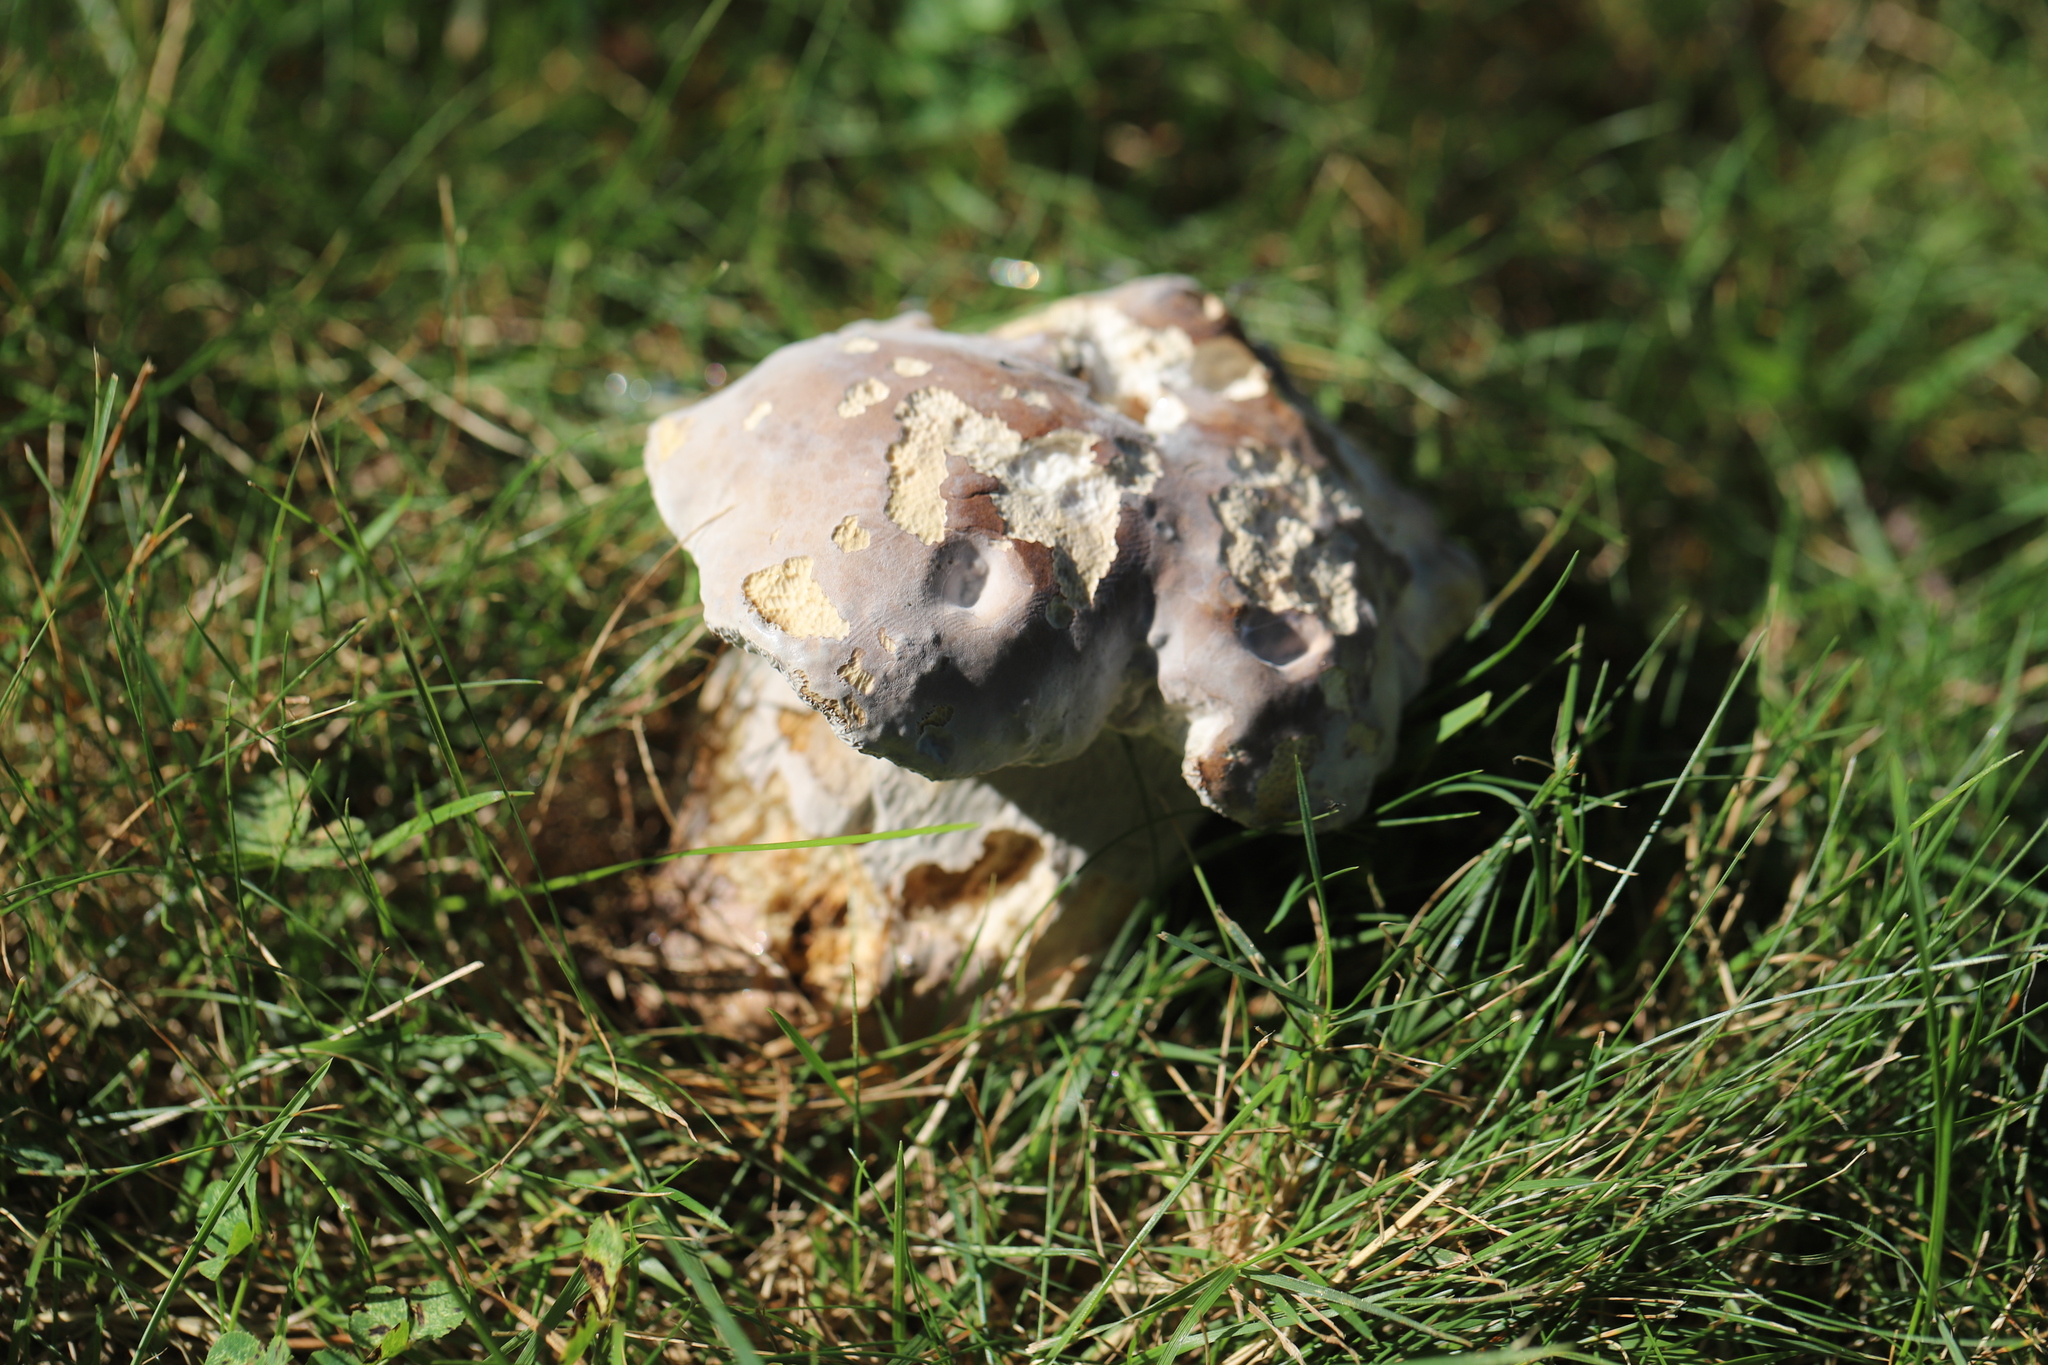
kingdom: Fungi
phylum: Basidiomycota
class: Agaricomycetes
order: Boletales
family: Boletaceae
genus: Porphyrellus
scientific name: Porphyrellus sordidus
